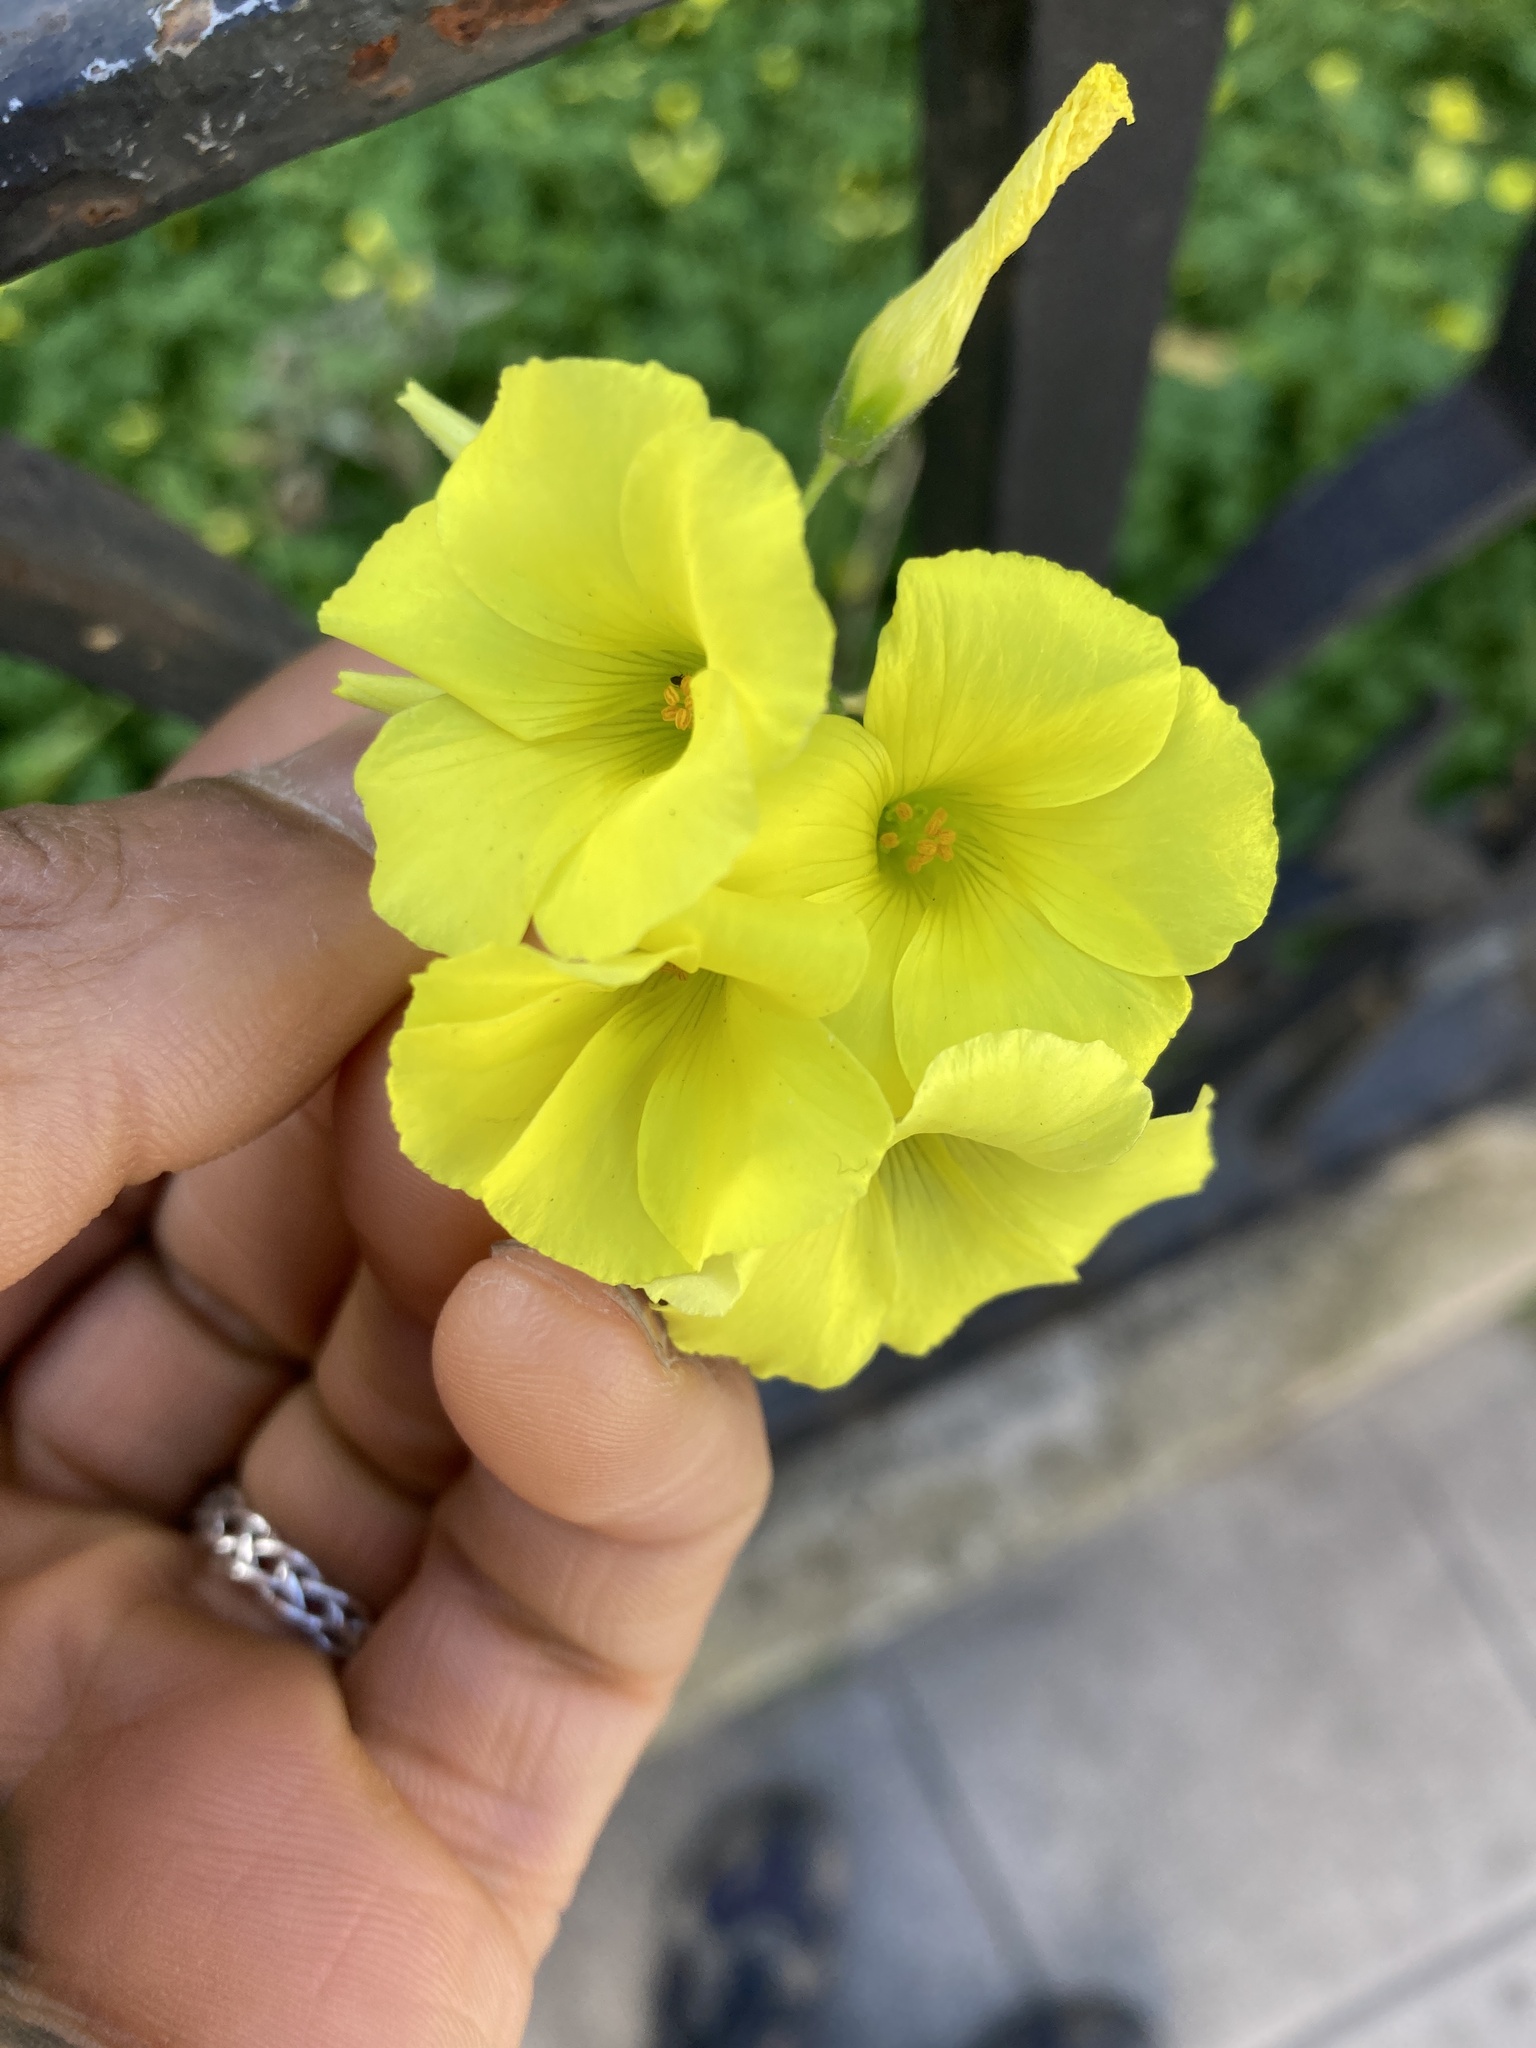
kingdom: Plantae
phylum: Tracheophyta
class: Magnoliopsida
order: Oxalidales
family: Oxalidaceae
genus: Oxalis
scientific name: Oxalis pes-caprae
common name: Bermuda-buttercup
